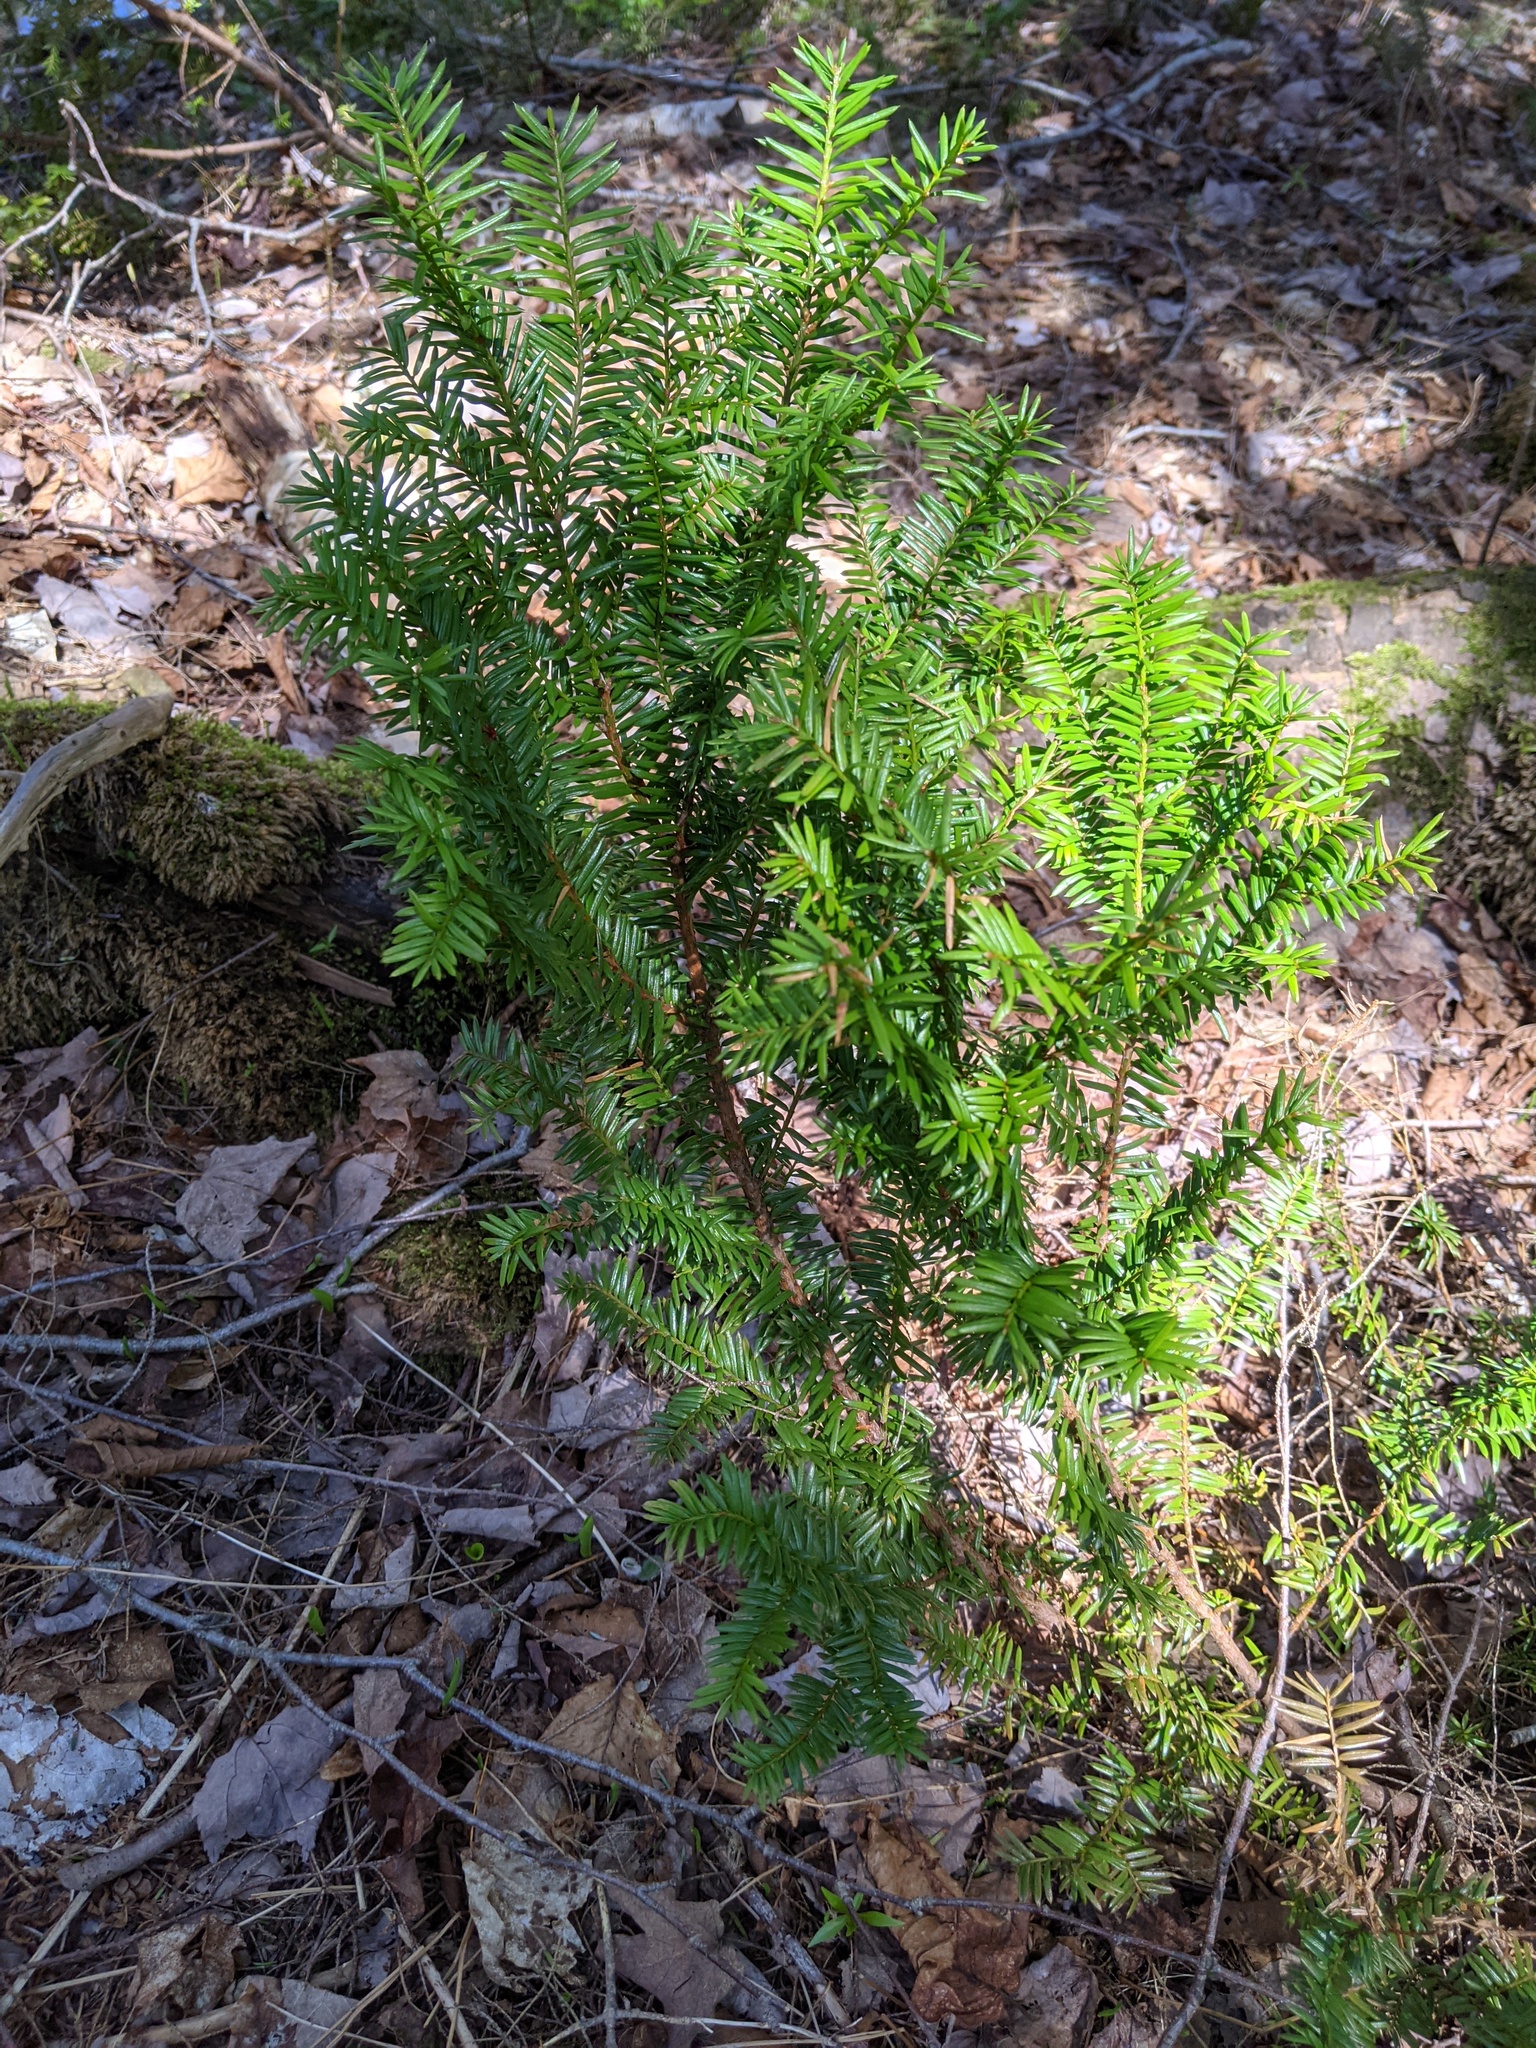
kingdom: Plantae
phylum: Tracheophyta
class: Pinopsida
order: Pinales
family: Taxaceae
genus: Taxus
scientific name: Taxus canadensis
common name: American yew
